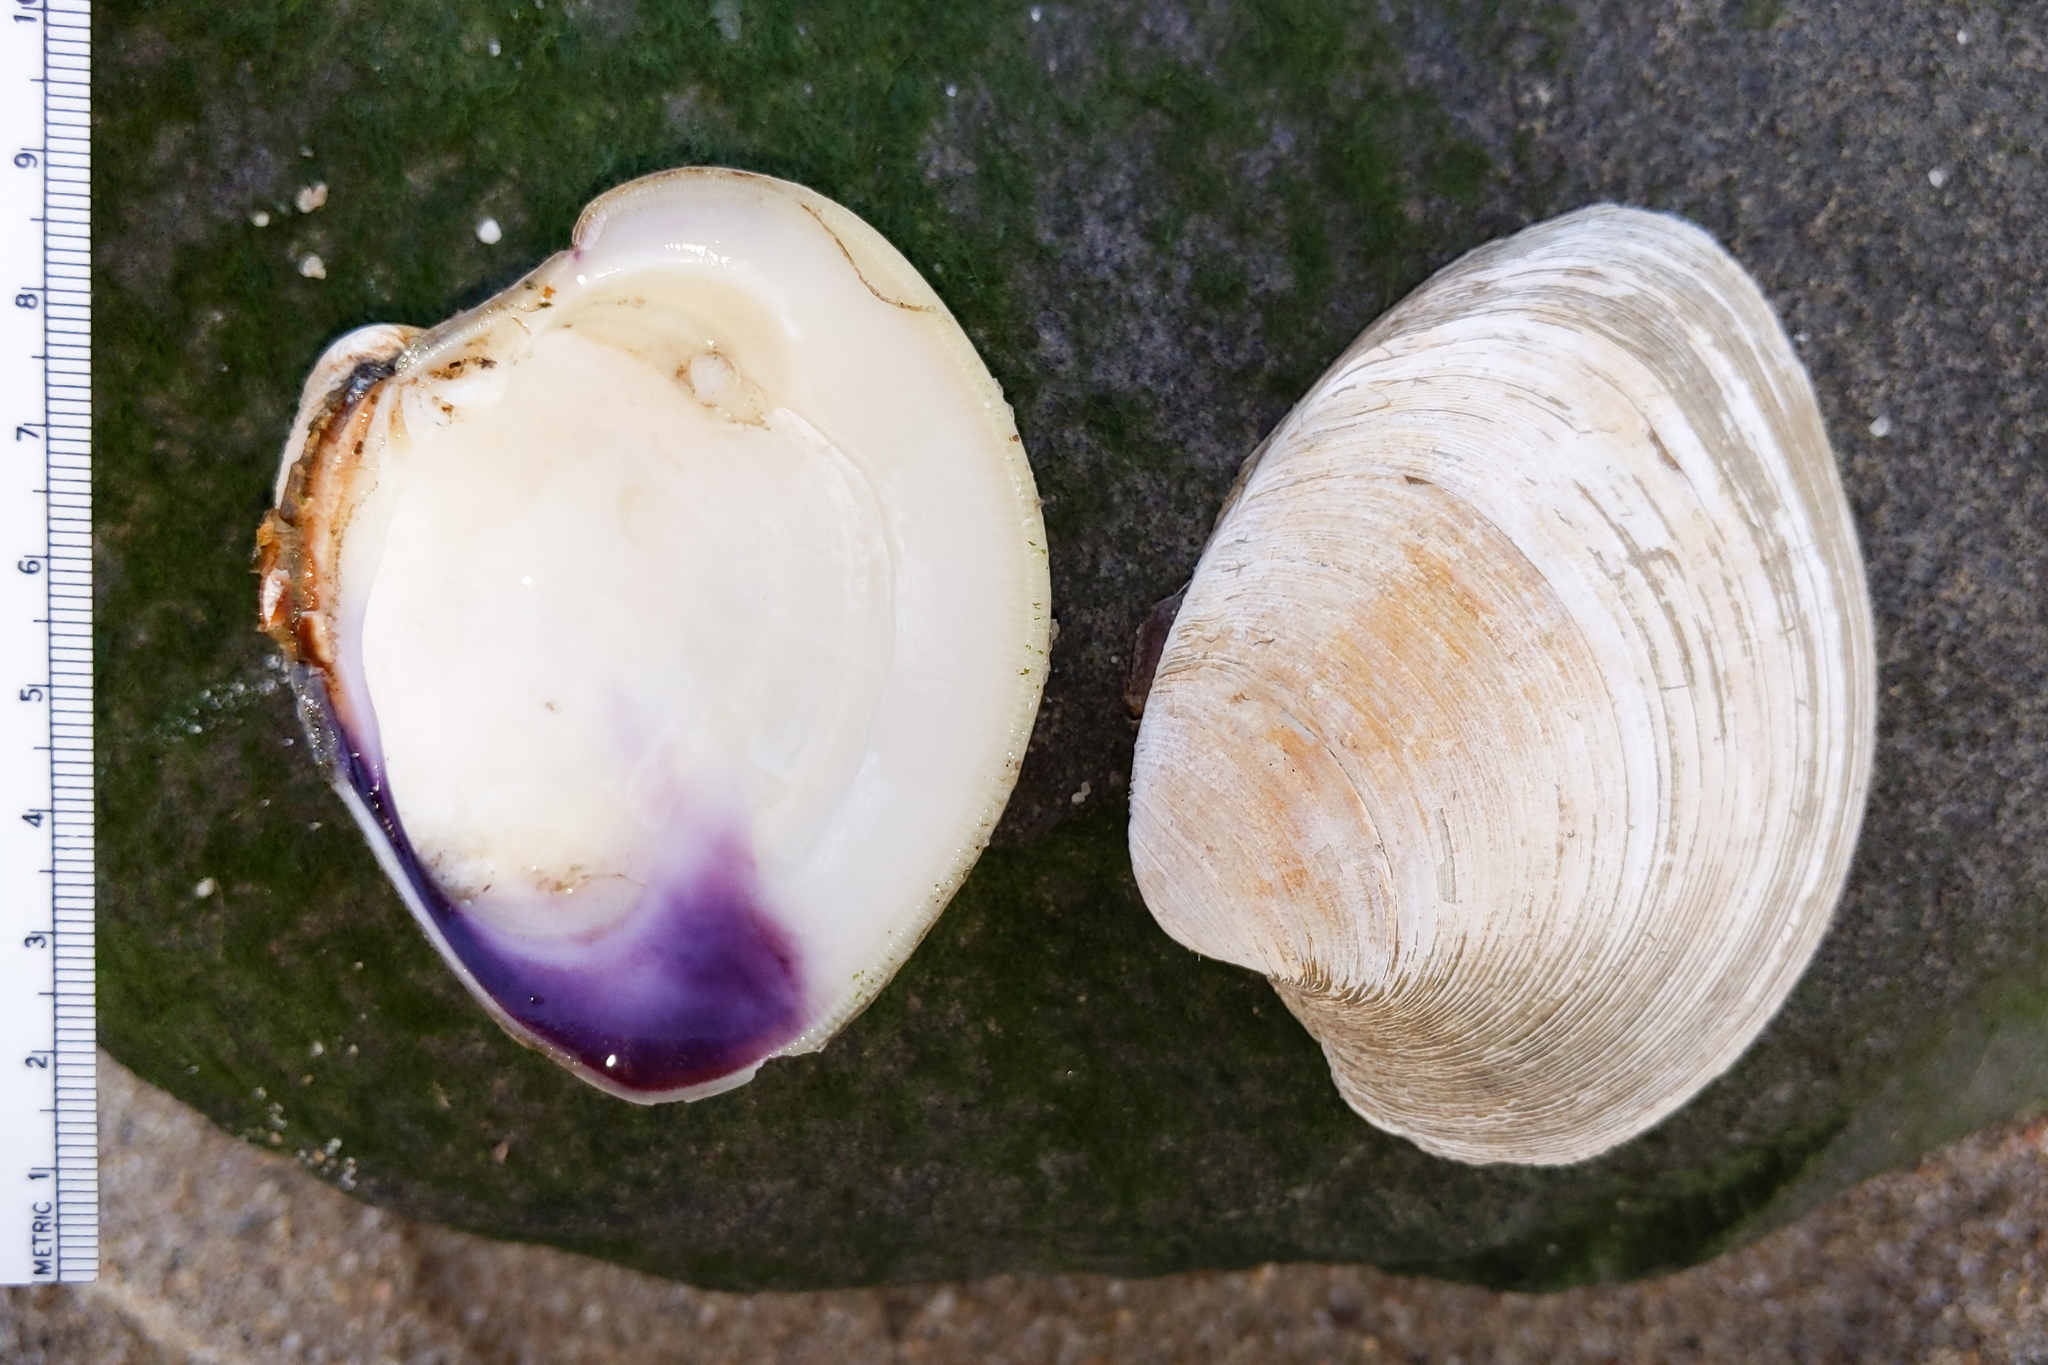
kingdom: Animalia
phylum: Mollusca
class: Bivalvia
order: Venerida
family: Veneridae
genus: Mercenaria
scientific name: Mercenaria mercenaria
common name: American hard-shelled clam
